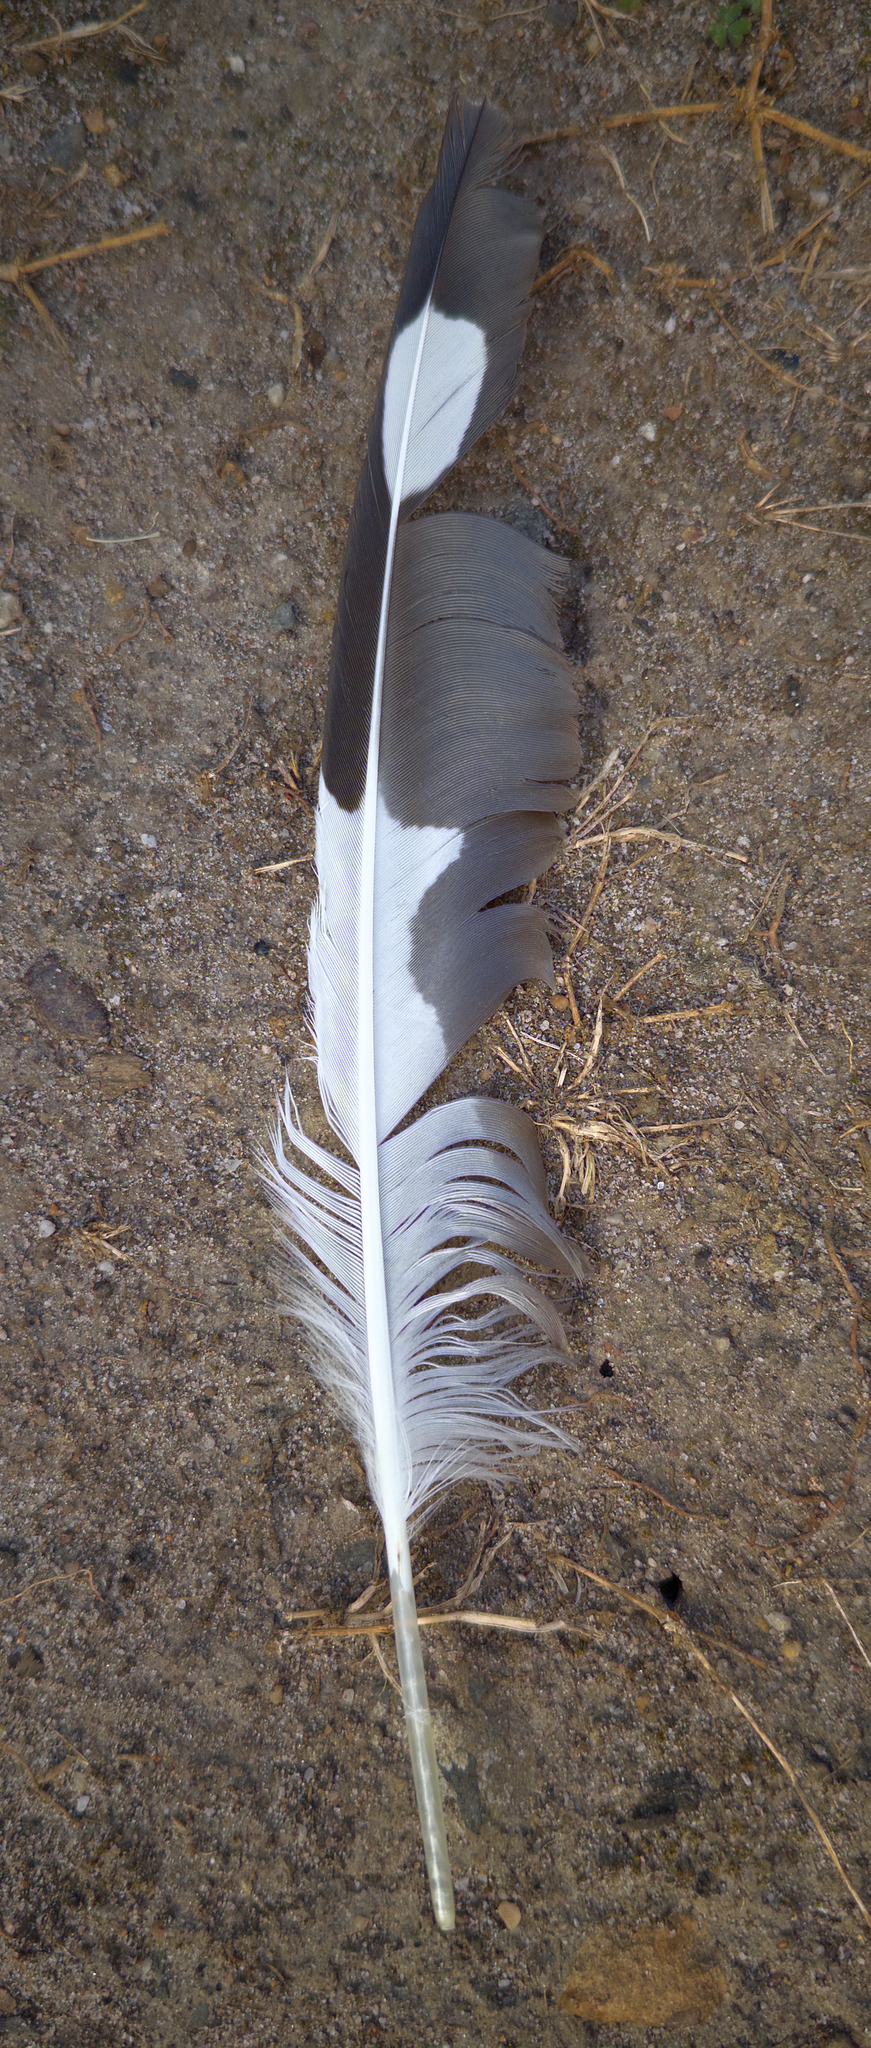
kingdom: Animalia
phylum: Chordata
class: Aves
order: Charadriiformes
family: Laridae
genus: Chroicocephalus
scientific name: Chroicocephalus novaehollandiae
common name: Silver gull
